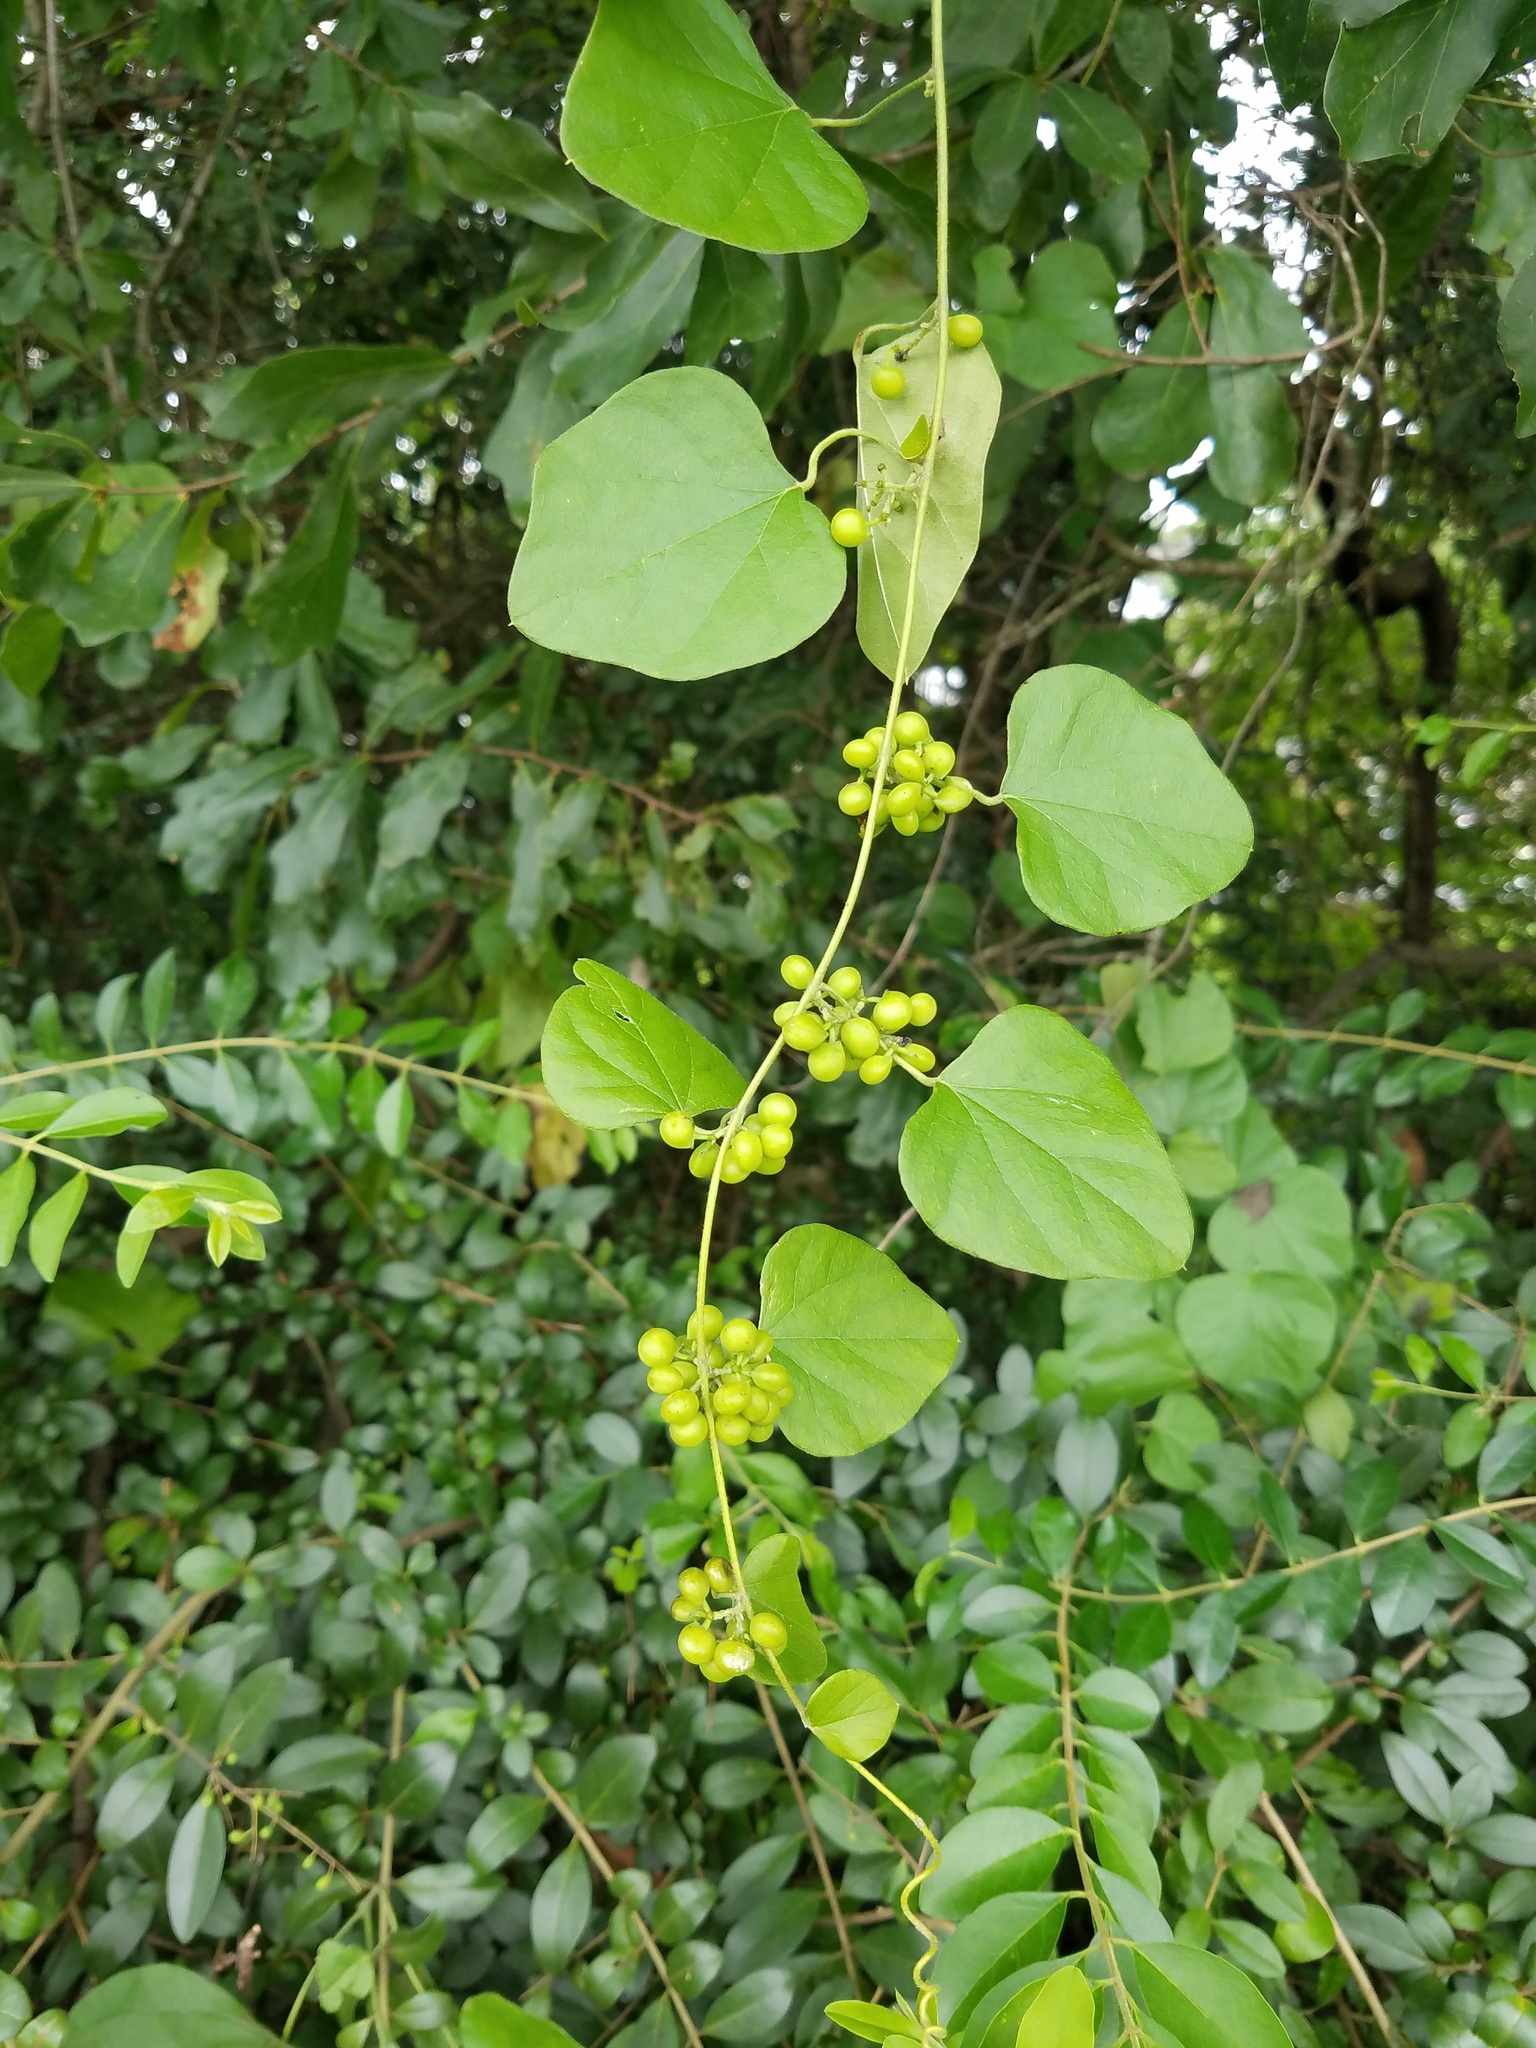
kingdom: Plantae
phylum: Tracheophyta
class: Magnoliopsida
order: Ranunculales
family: Menispermaceae
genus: Cocculus
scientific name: Cocculus carolinus
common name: Carolina moonseed
